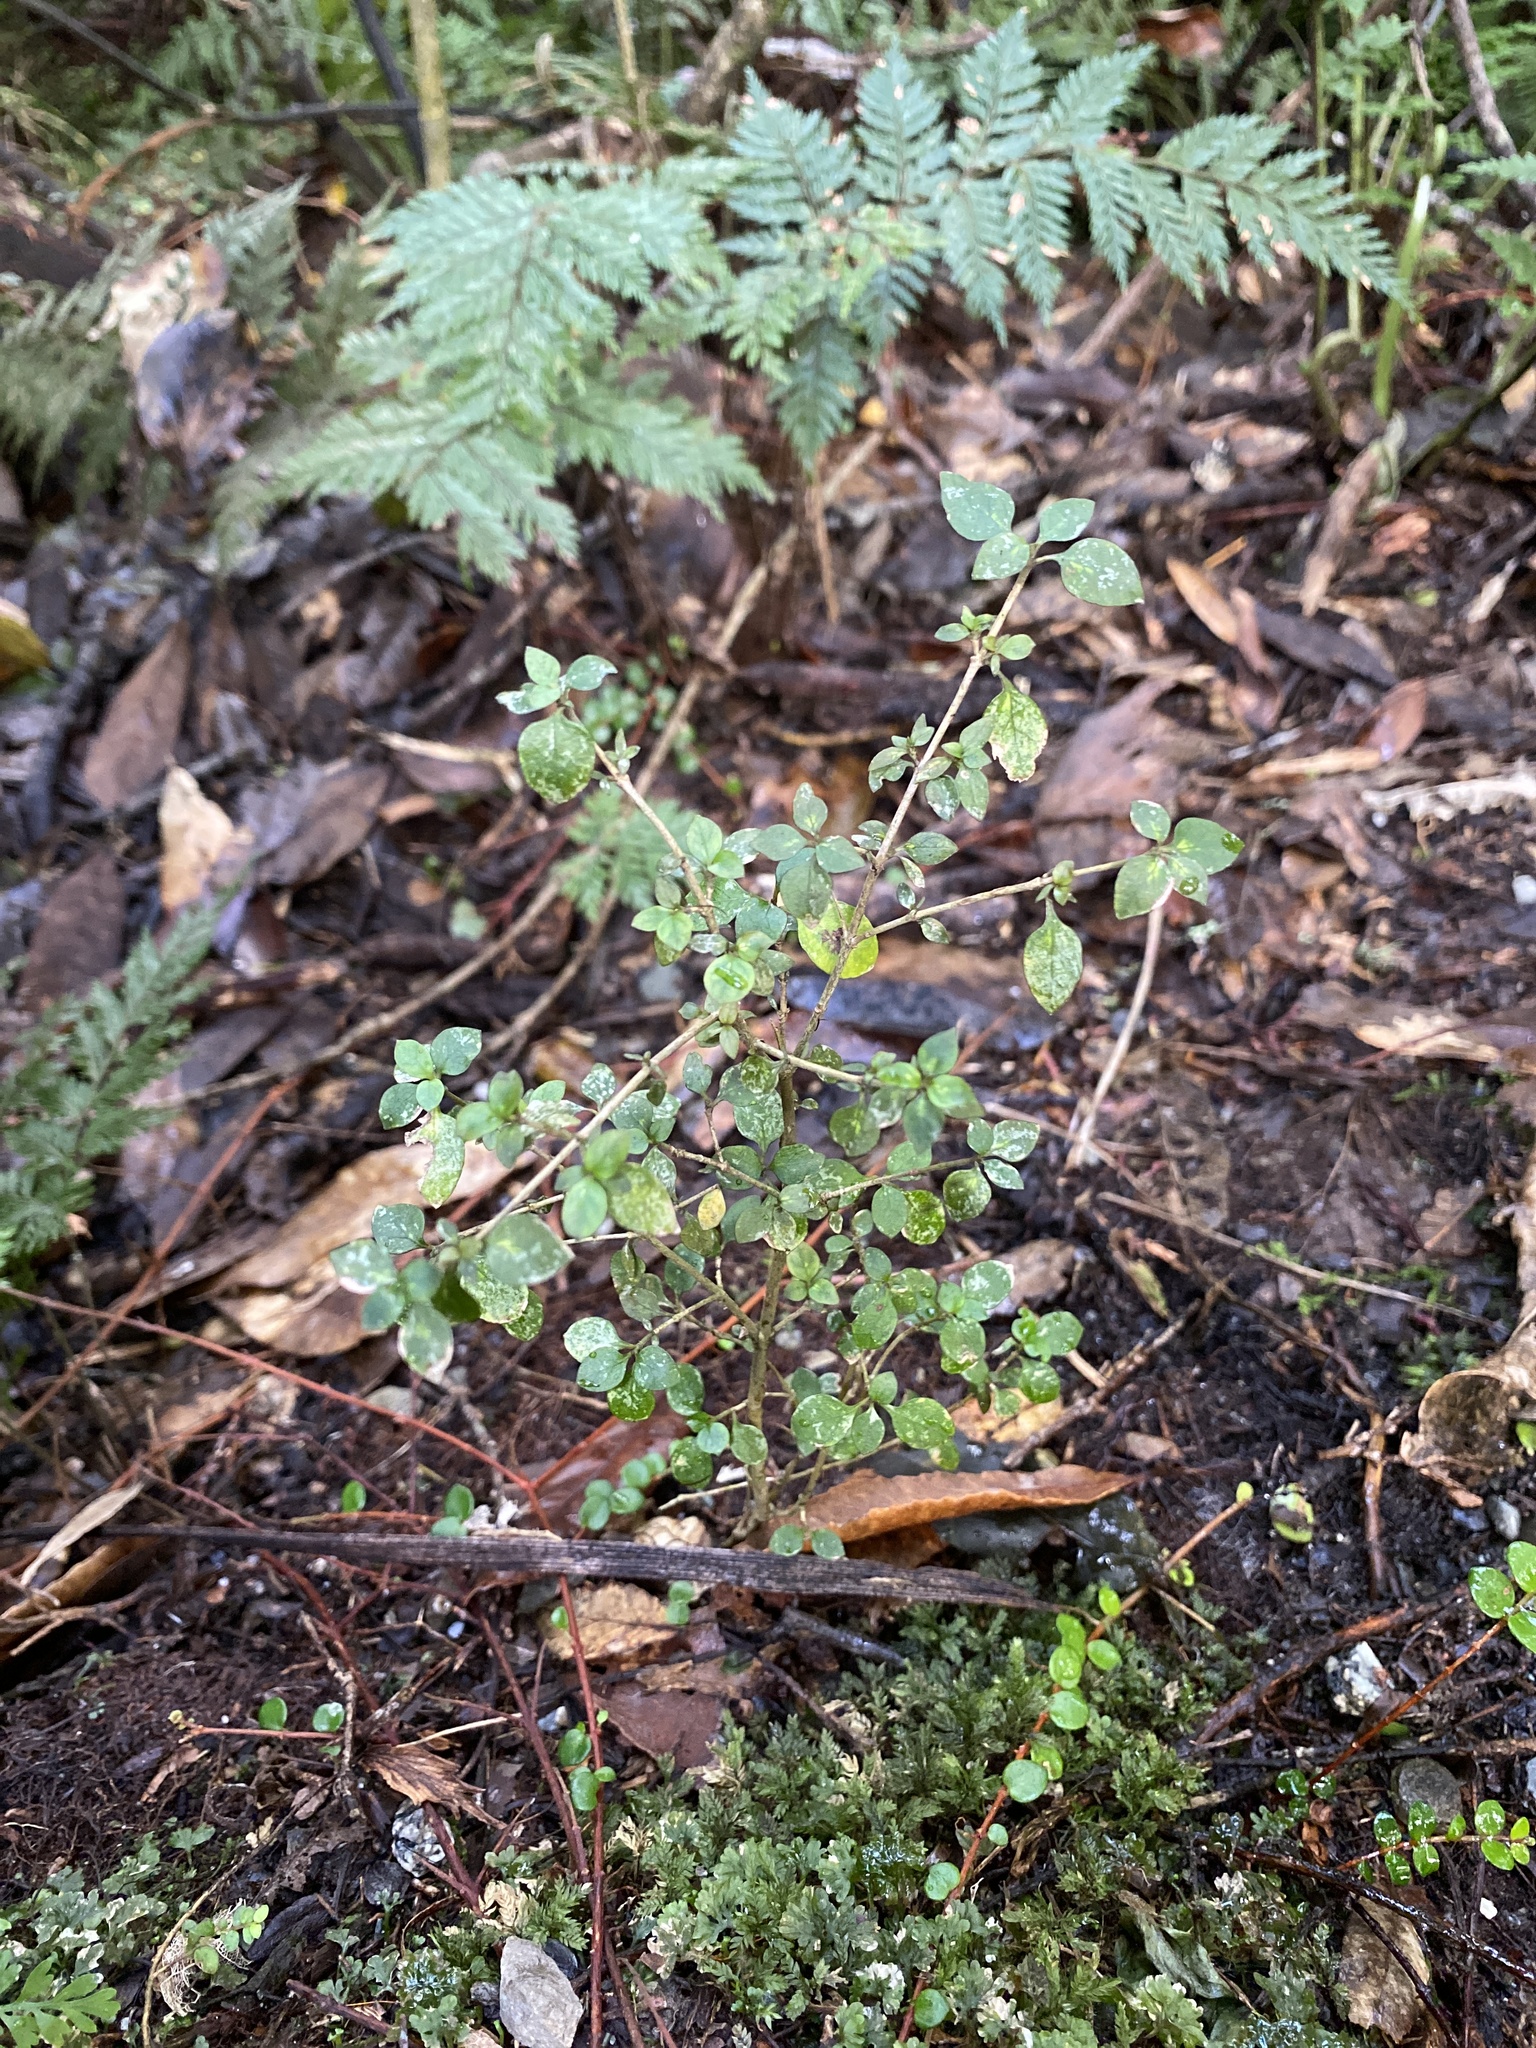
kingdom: Plantae
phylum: Tracheophyta
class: Magnoliopsida
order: Gentianales
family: Rubiaceae
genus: Coprosma
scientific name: Coprosma rhamnoides
